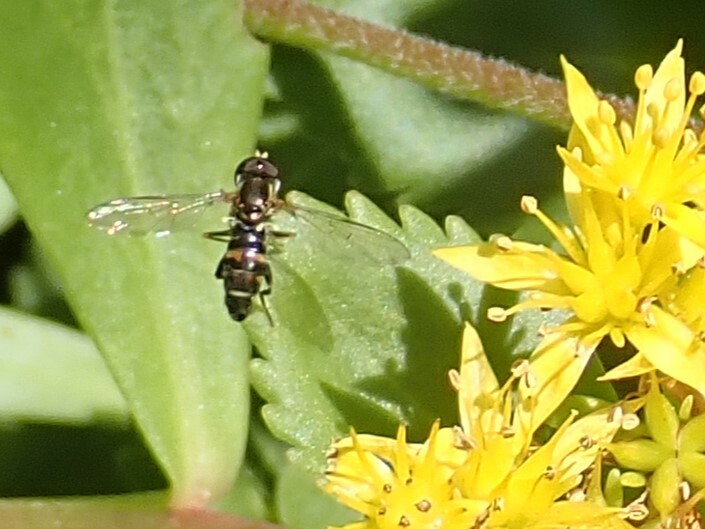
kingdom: Animalia
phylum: Arthropoda
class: Insecta
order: Diptera
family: Syrphidae
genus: Toxomerus
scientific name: Toxomerus occidentalis
